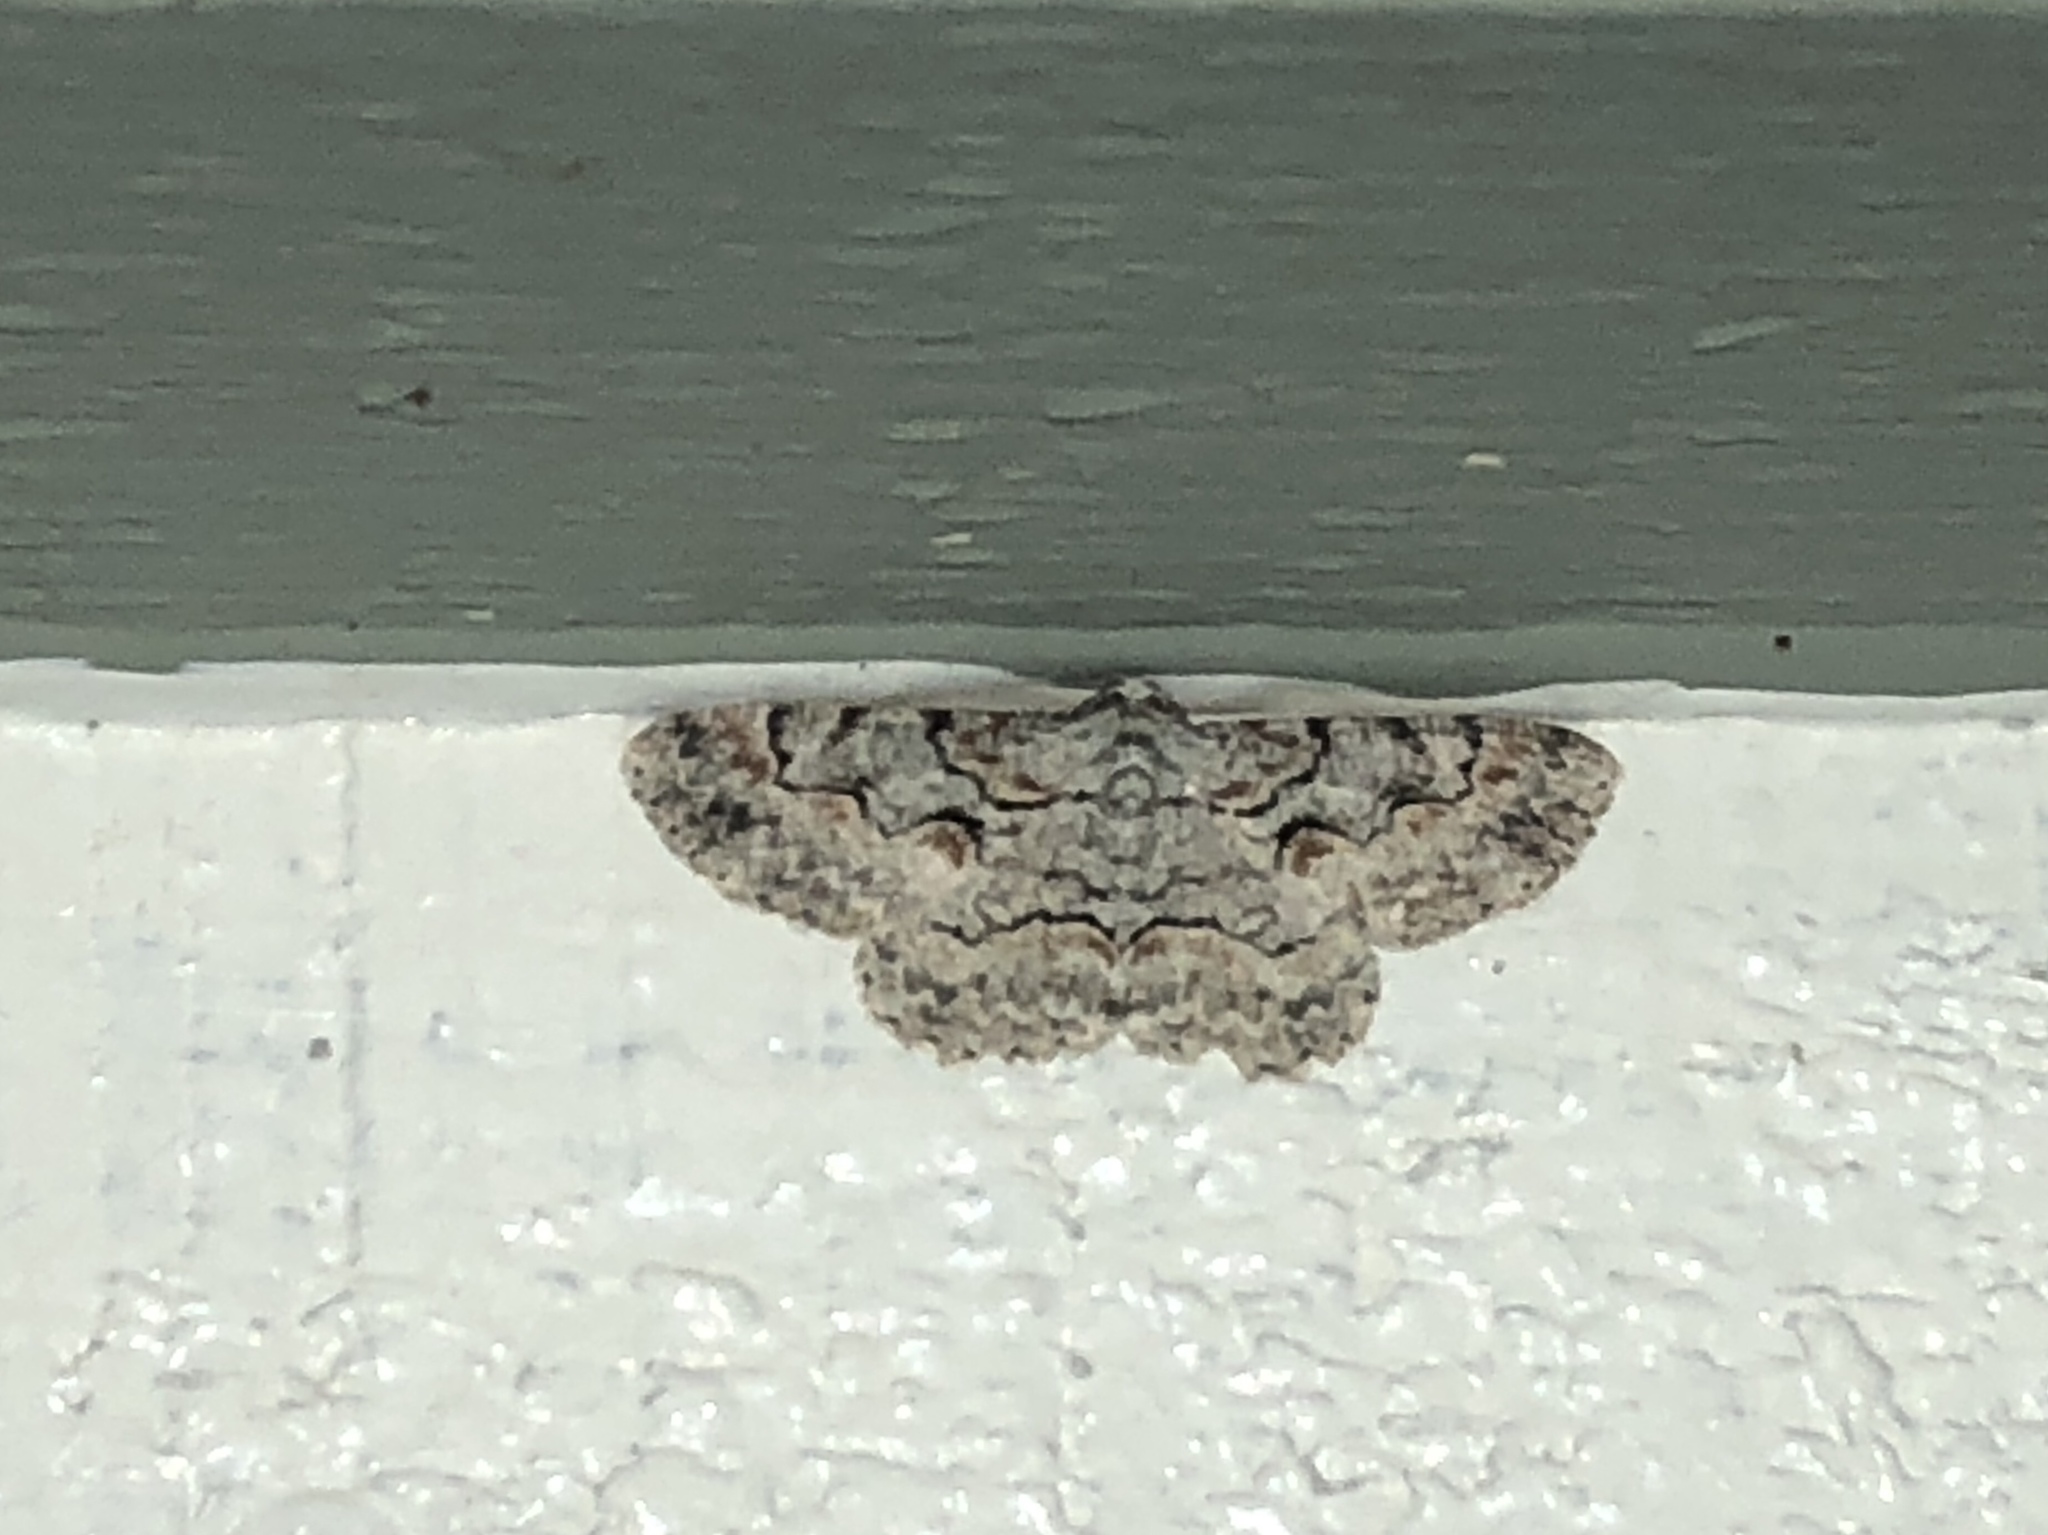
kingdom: Animalia
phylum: Arthropoda
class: Insecta
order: Lepidoptera
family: Geometridae
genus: Iridopsis
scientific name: Iridopsis defectaria
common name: Brown-shaded gray
